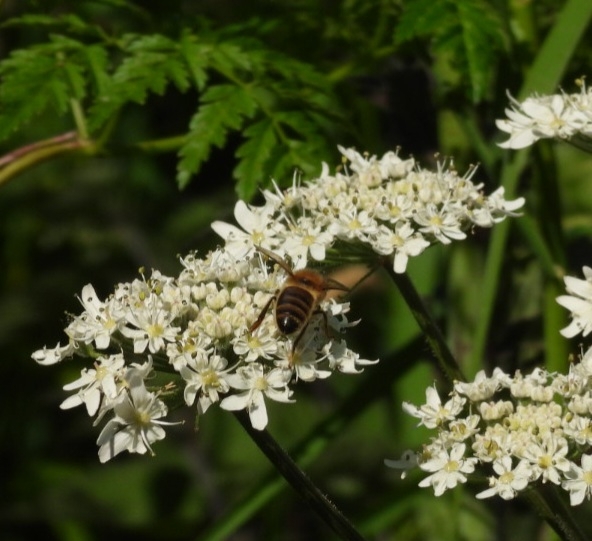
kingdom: Animalia
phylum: Arthropoda
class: Insecta
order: Hymenoptera
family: Apidae
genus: Apis
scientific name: Apis mellifera
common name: Honey bee
